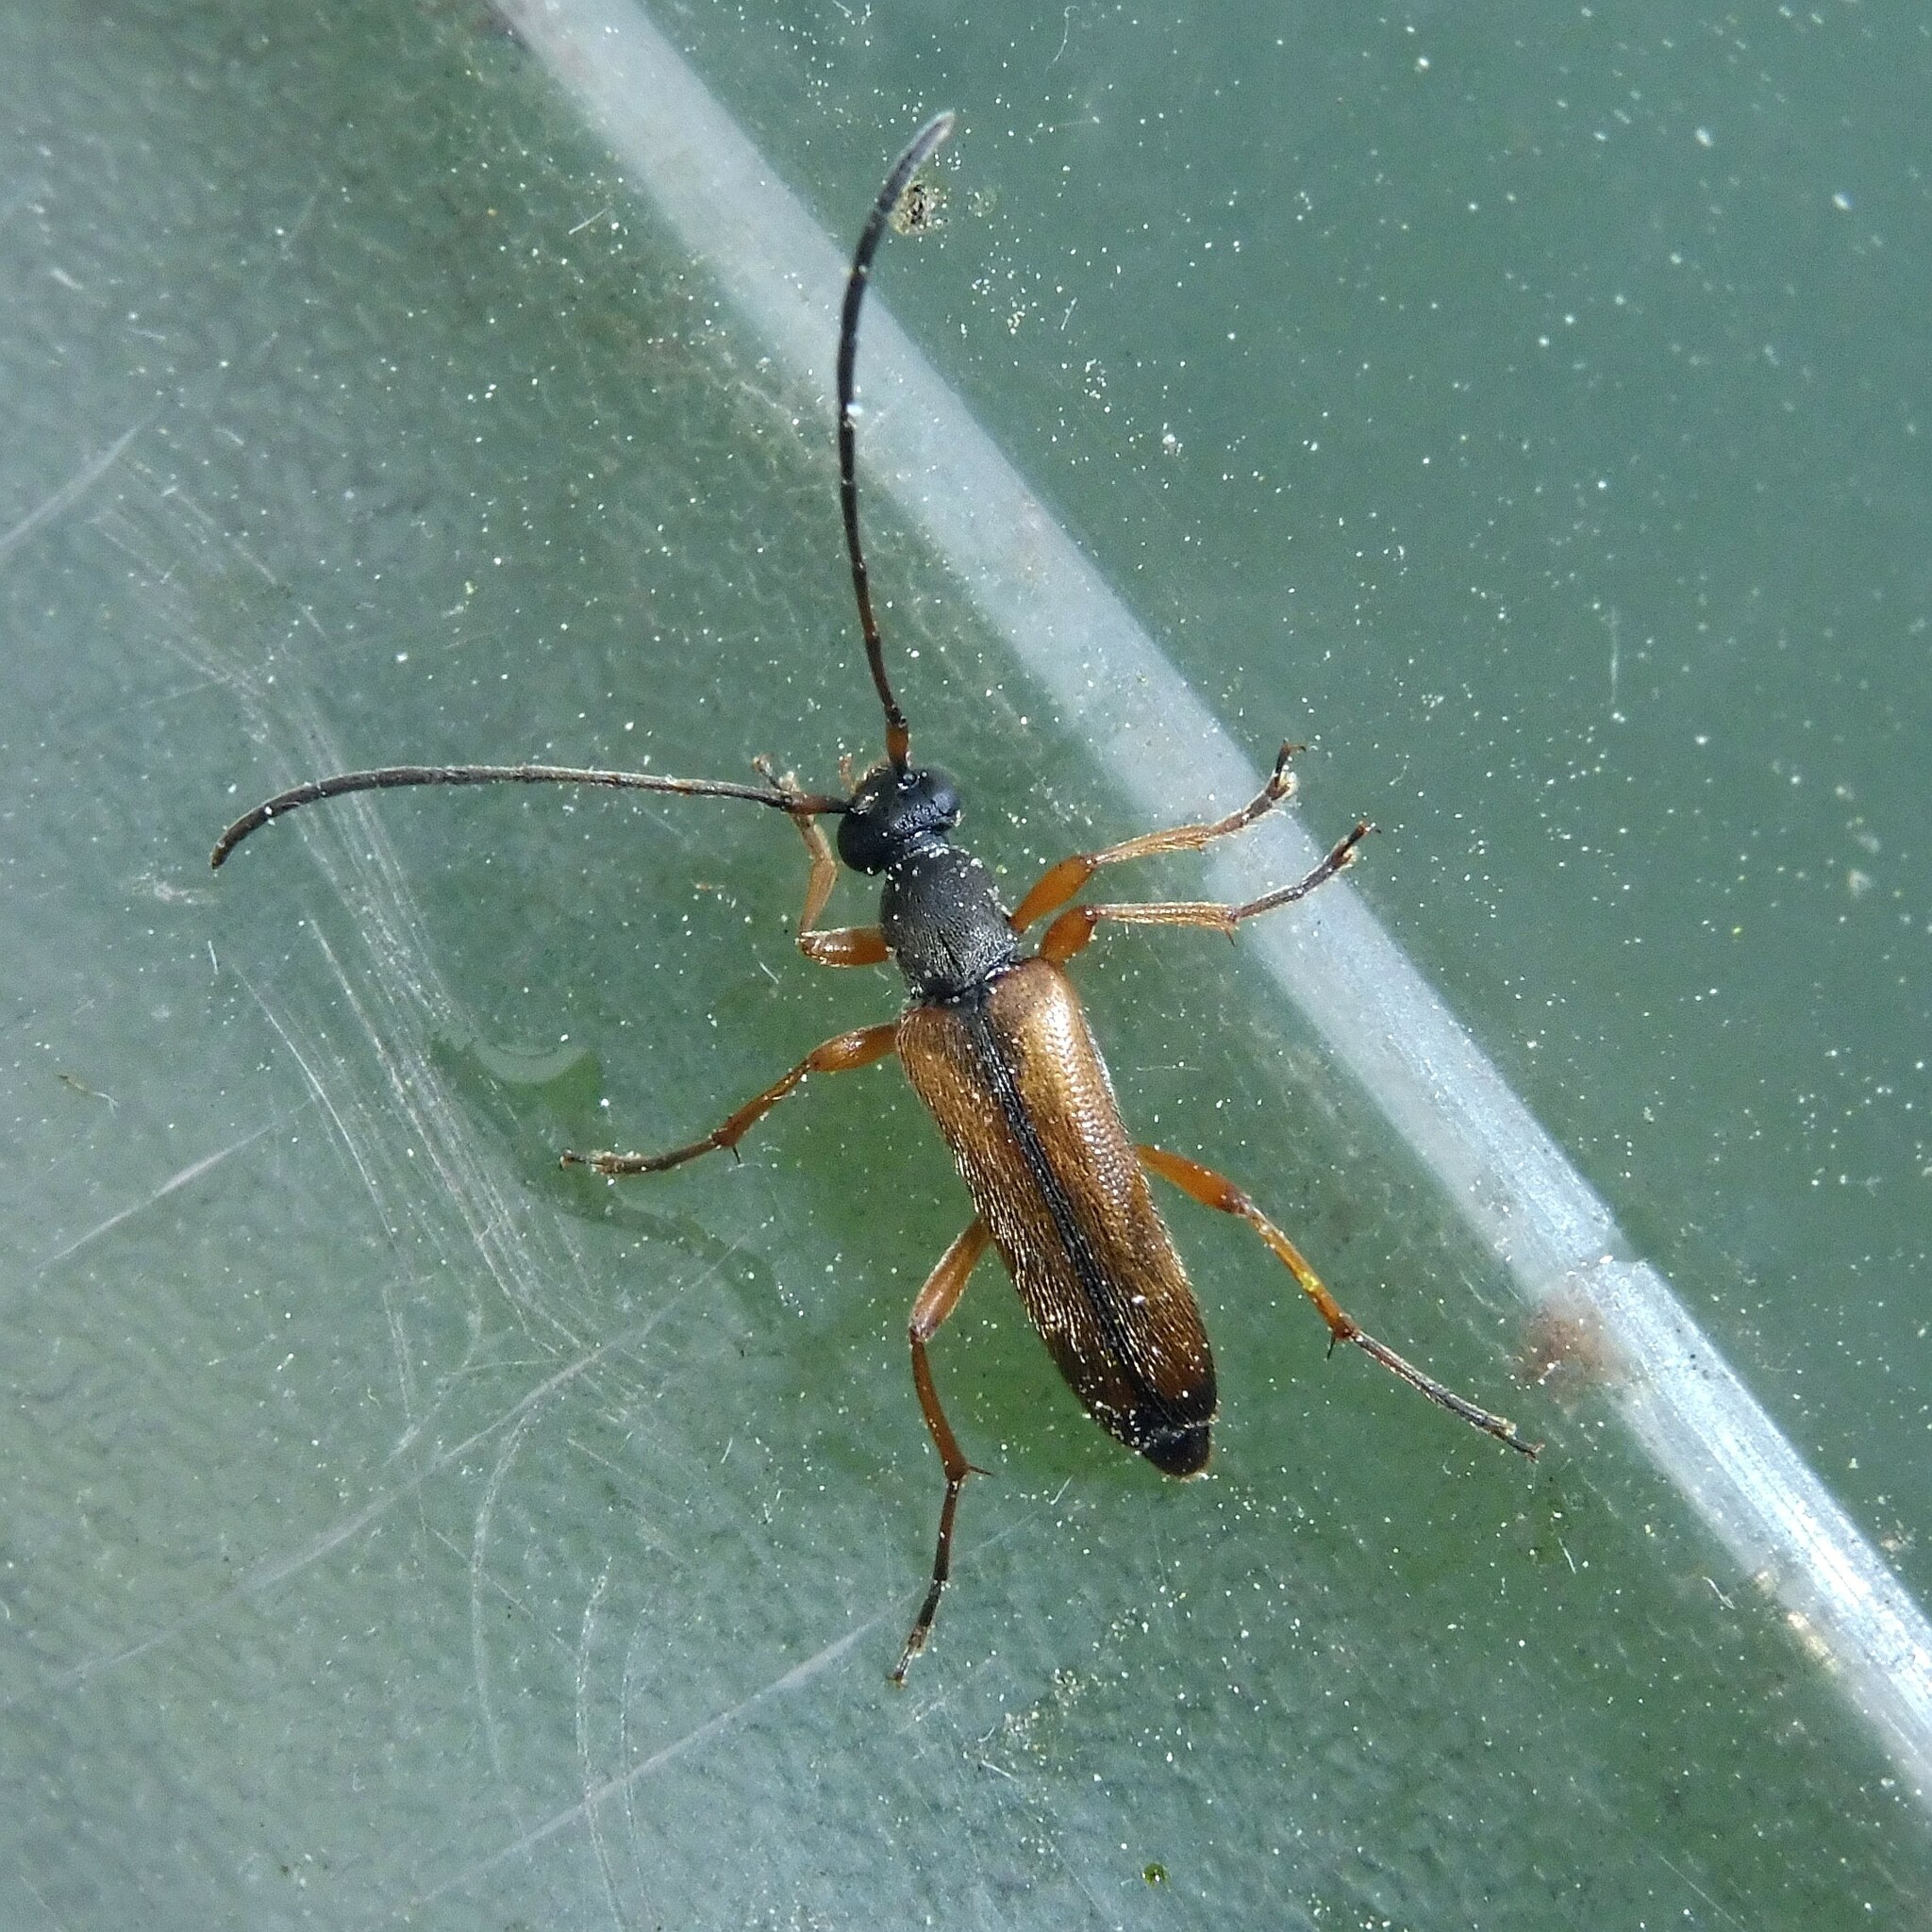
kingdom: Animalia
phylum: Arthropoda
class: Insecta
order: Coleoptera
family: Cerambycidae
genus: Alosterna
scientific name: Alosterna tabacicolor
